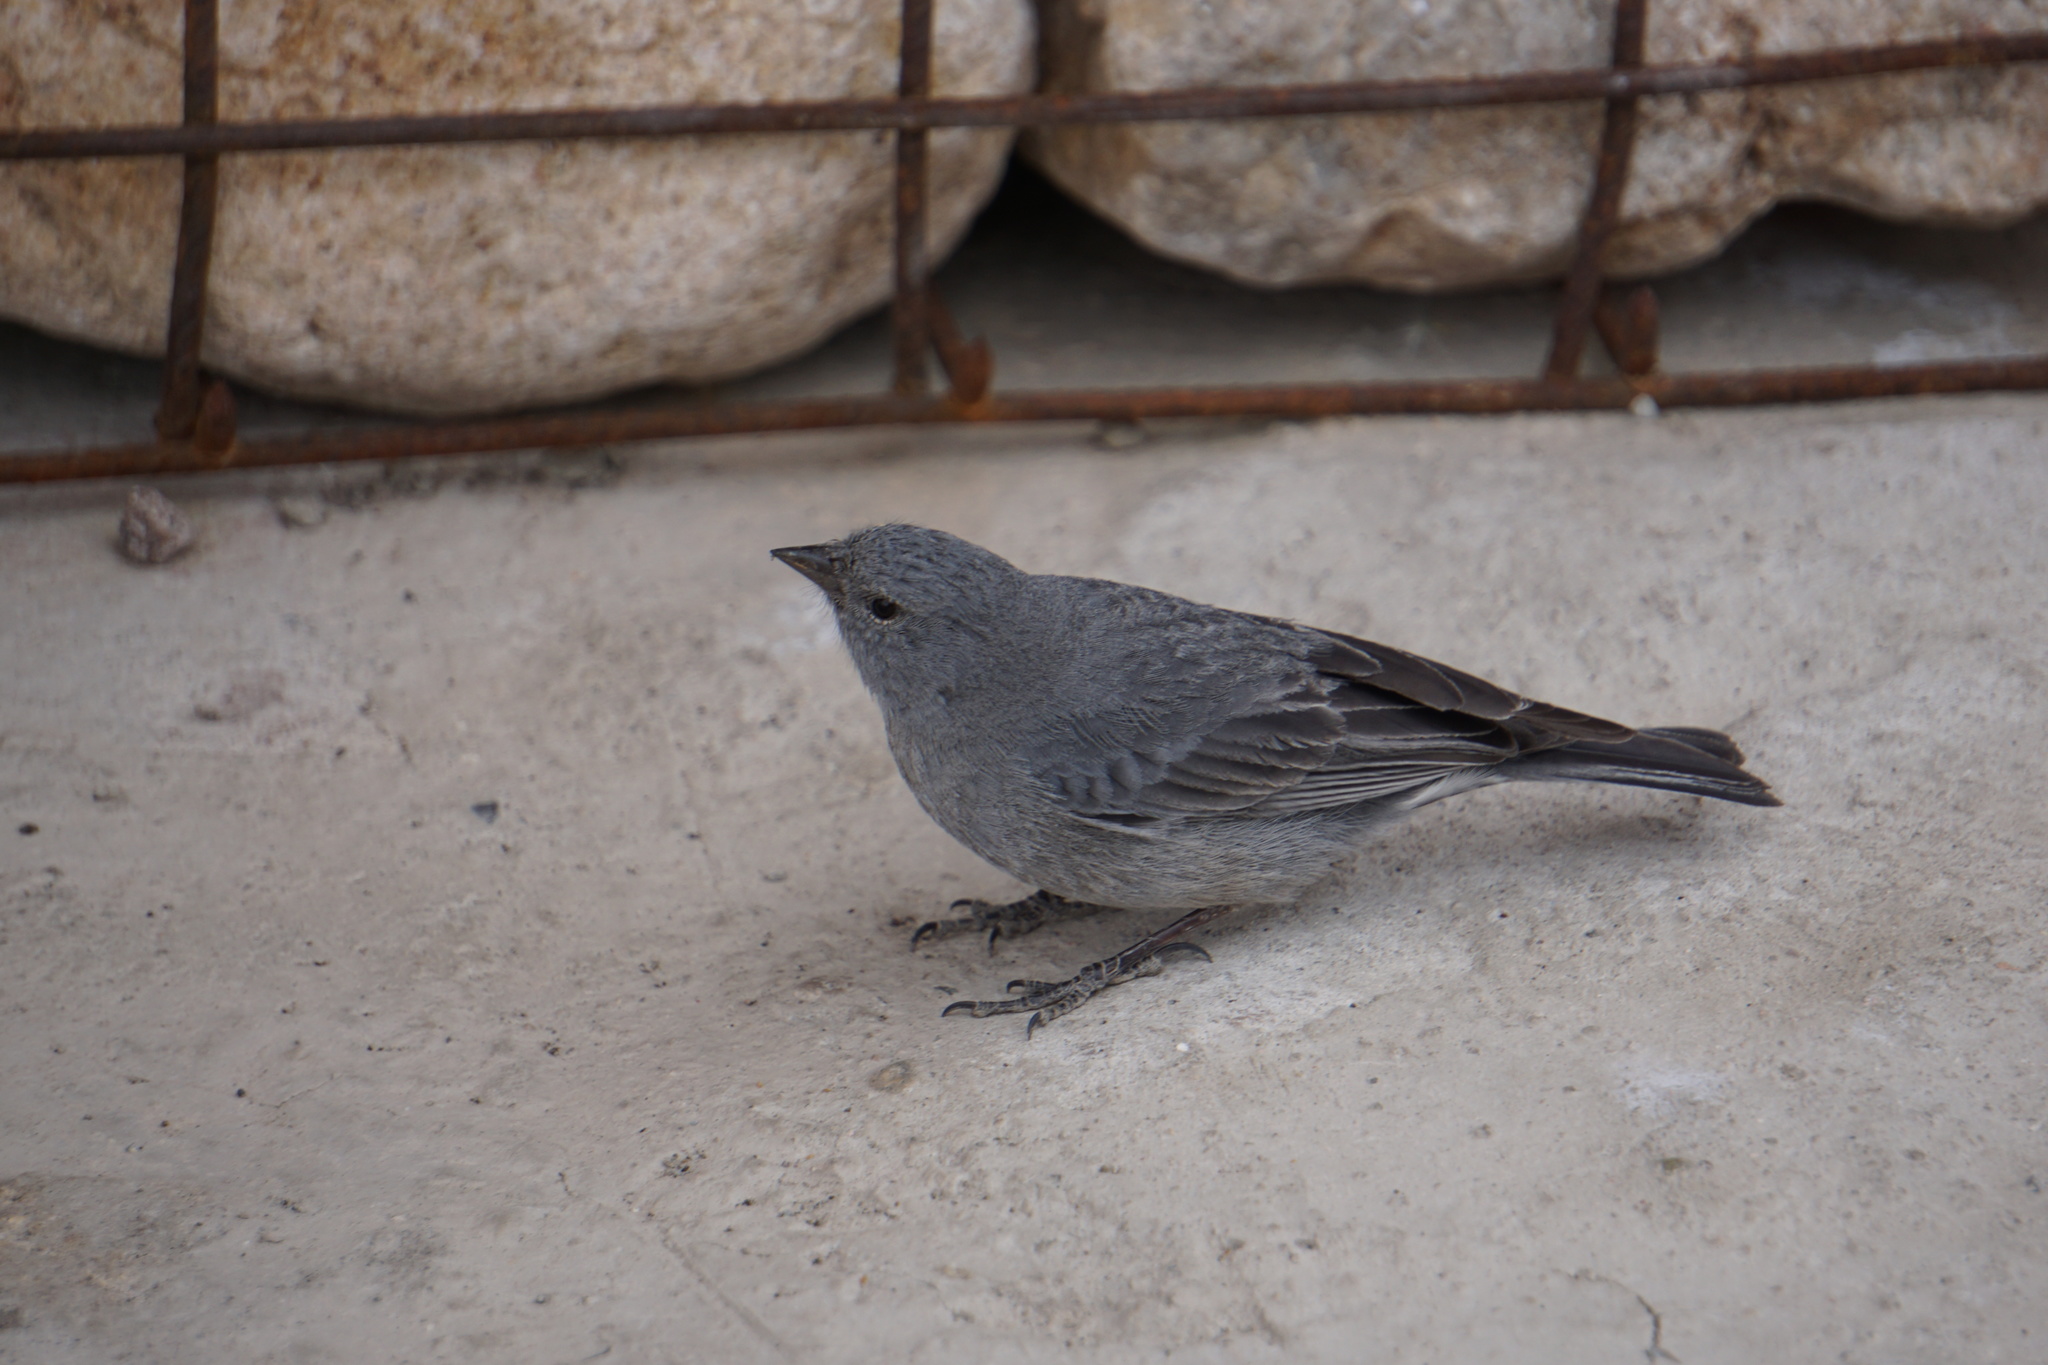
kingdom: Animalia
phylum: Chordata
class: Aves
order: Passeriformes
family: Thraupidae
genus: Geospizopsis
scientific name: Geospizopsis unicolor
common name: Plumbeous sierra-finch
